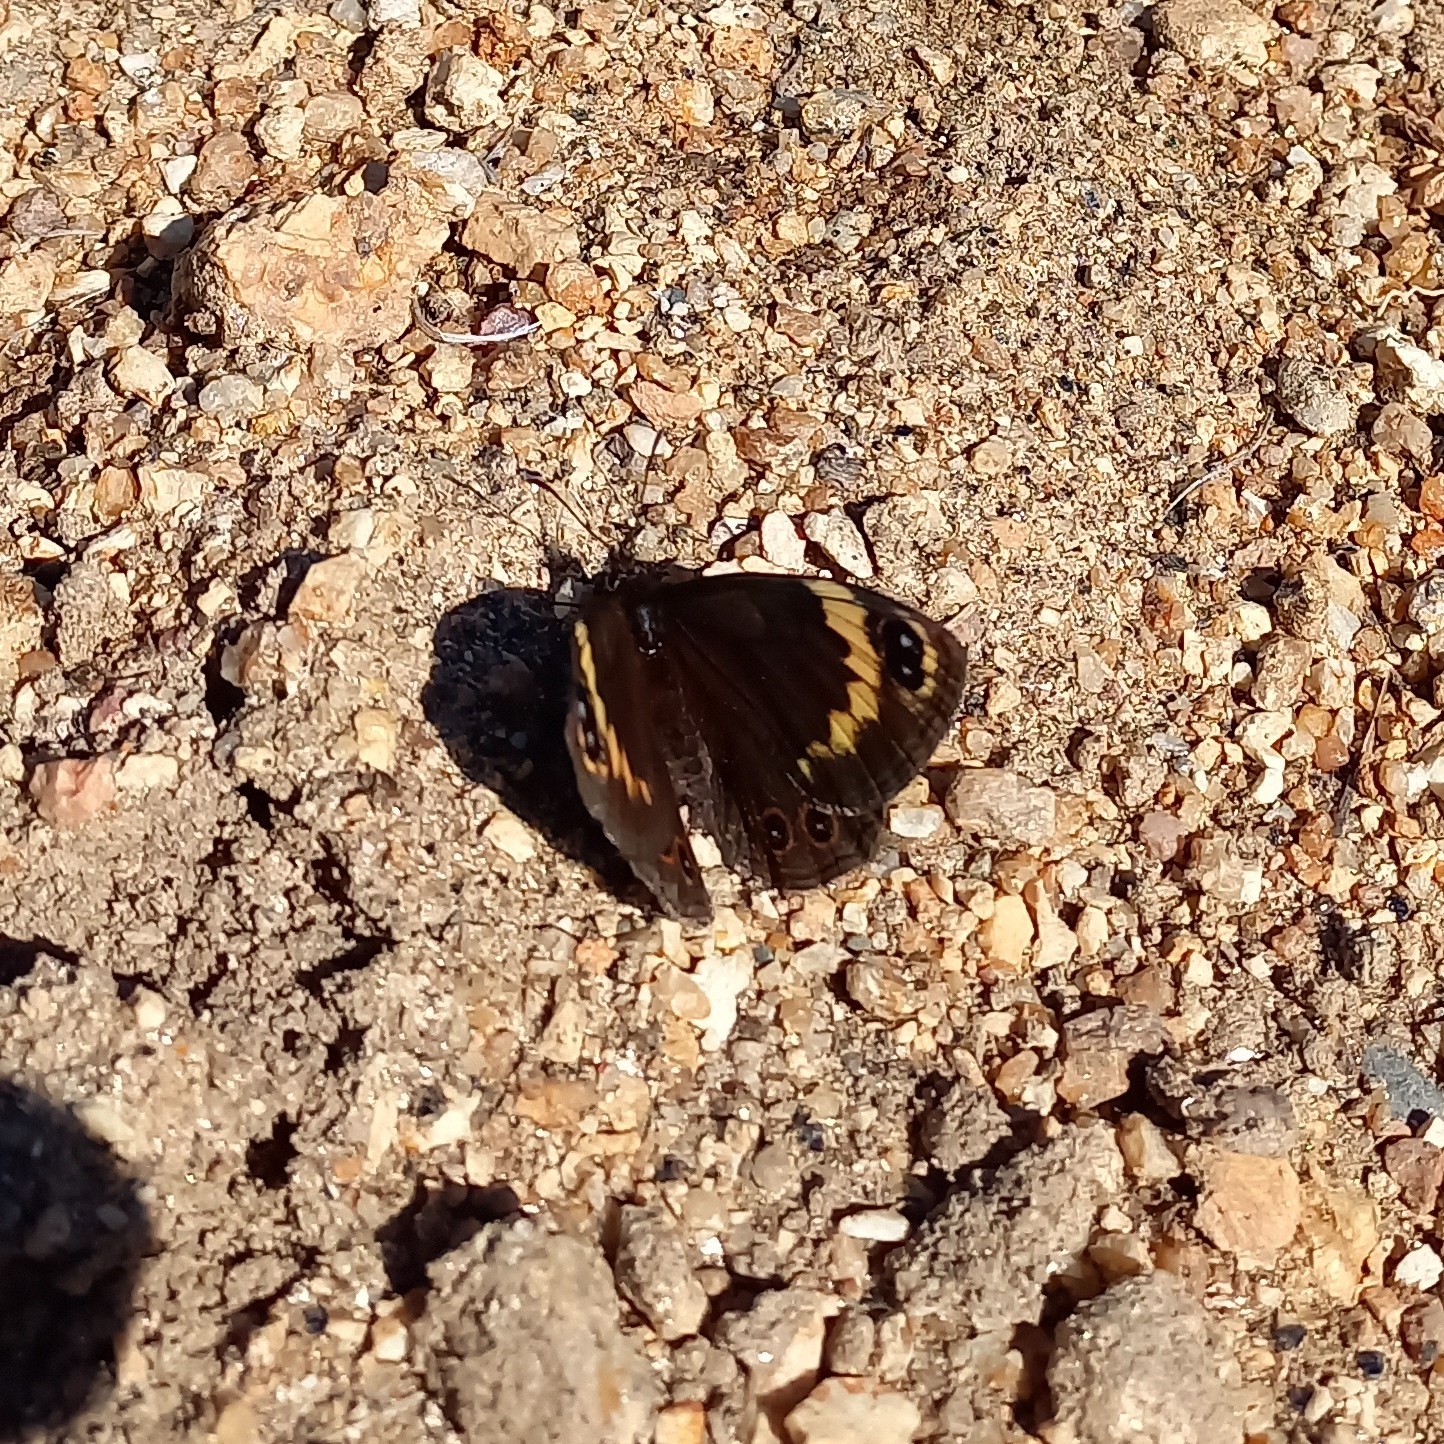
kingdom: Animalia
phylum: Arthropoda
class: Insecta
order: Lepidoptera
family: Nymphalidae
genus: Dira
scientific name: Dira clytus
